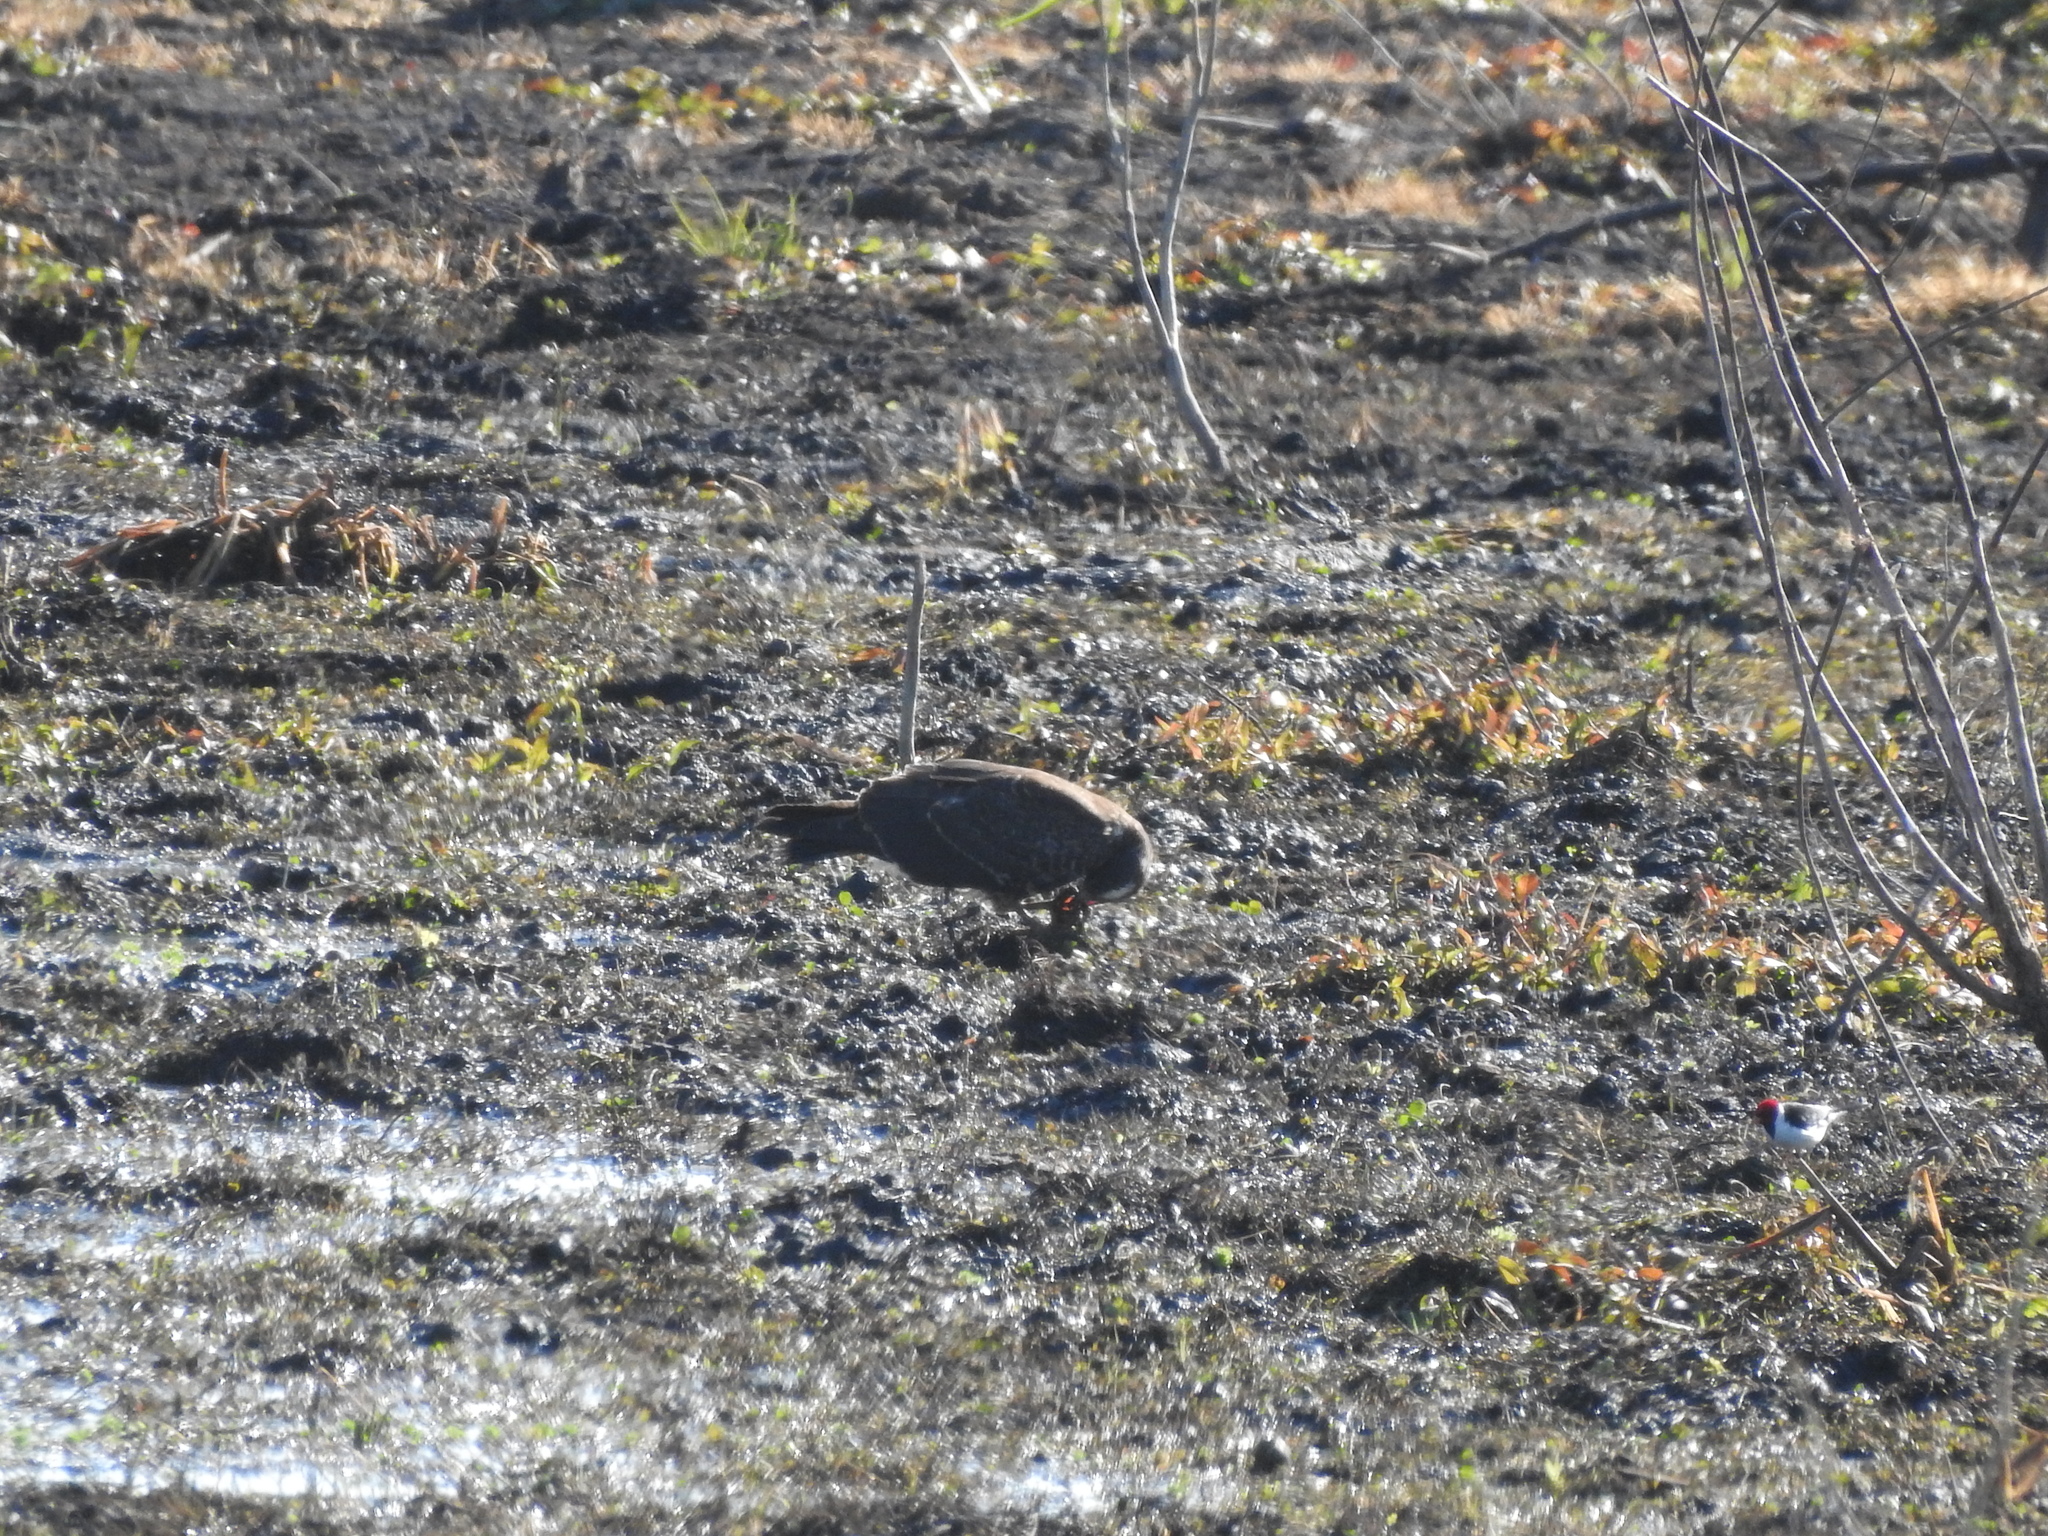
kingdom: Animalia
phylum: Chordata
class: Aves
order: Accipitriformes
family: Accipitridae
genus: Rostrhamus
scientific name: Rostrhamus sociabilis
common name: Snail kite
